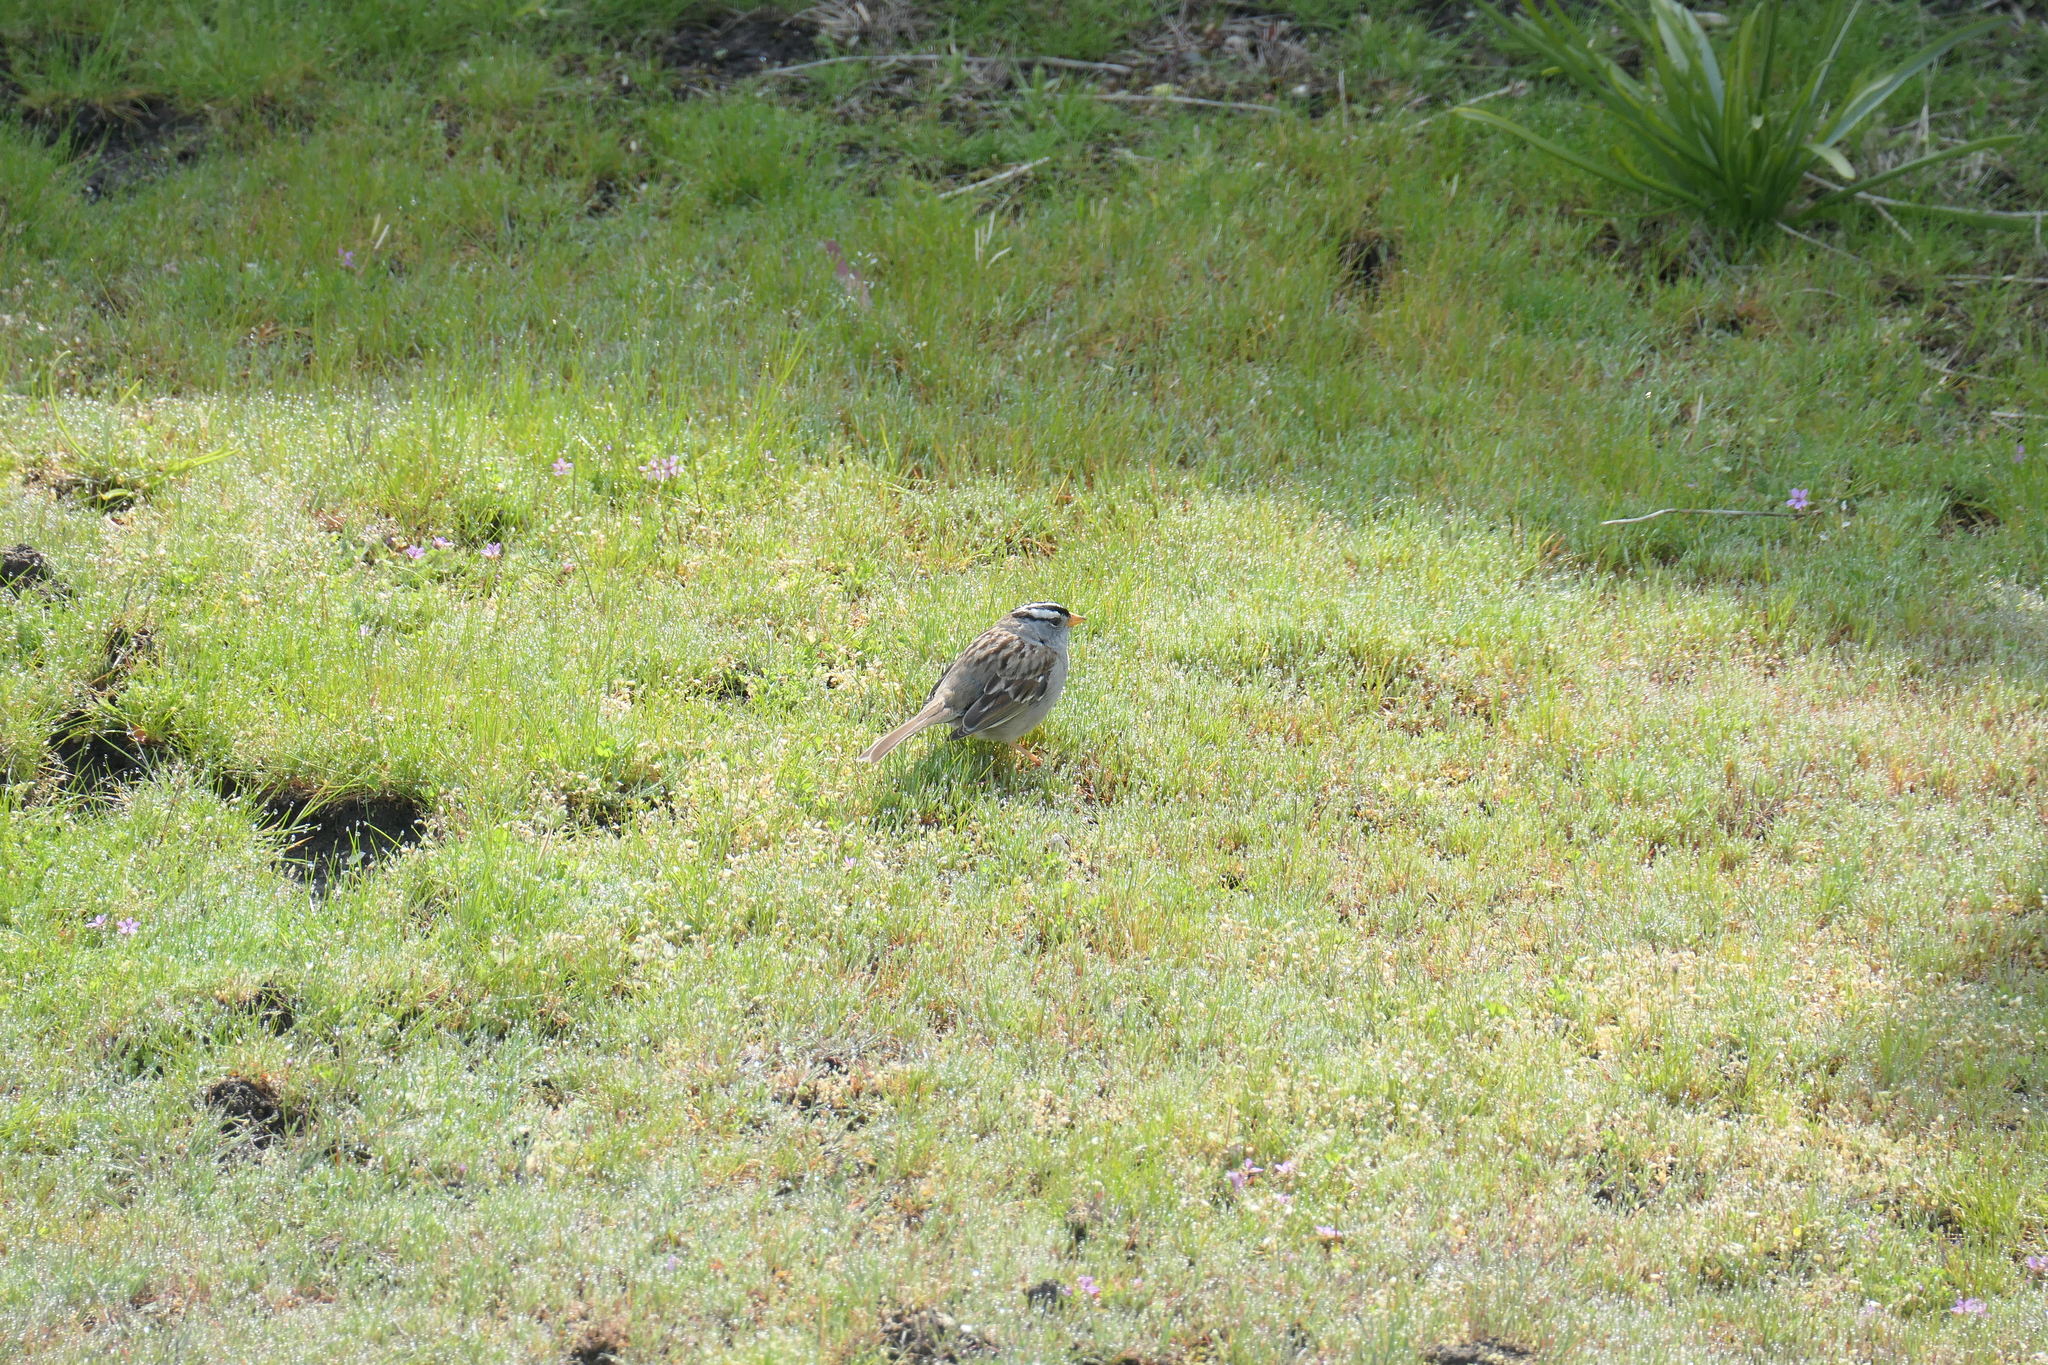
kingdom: Animalia
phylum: Chordata
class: Aves
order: Passeriformes
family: Passerellidae
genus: Zonotrichia
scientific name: Zonotrichia leucophrys
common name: White-crowned sparrow
